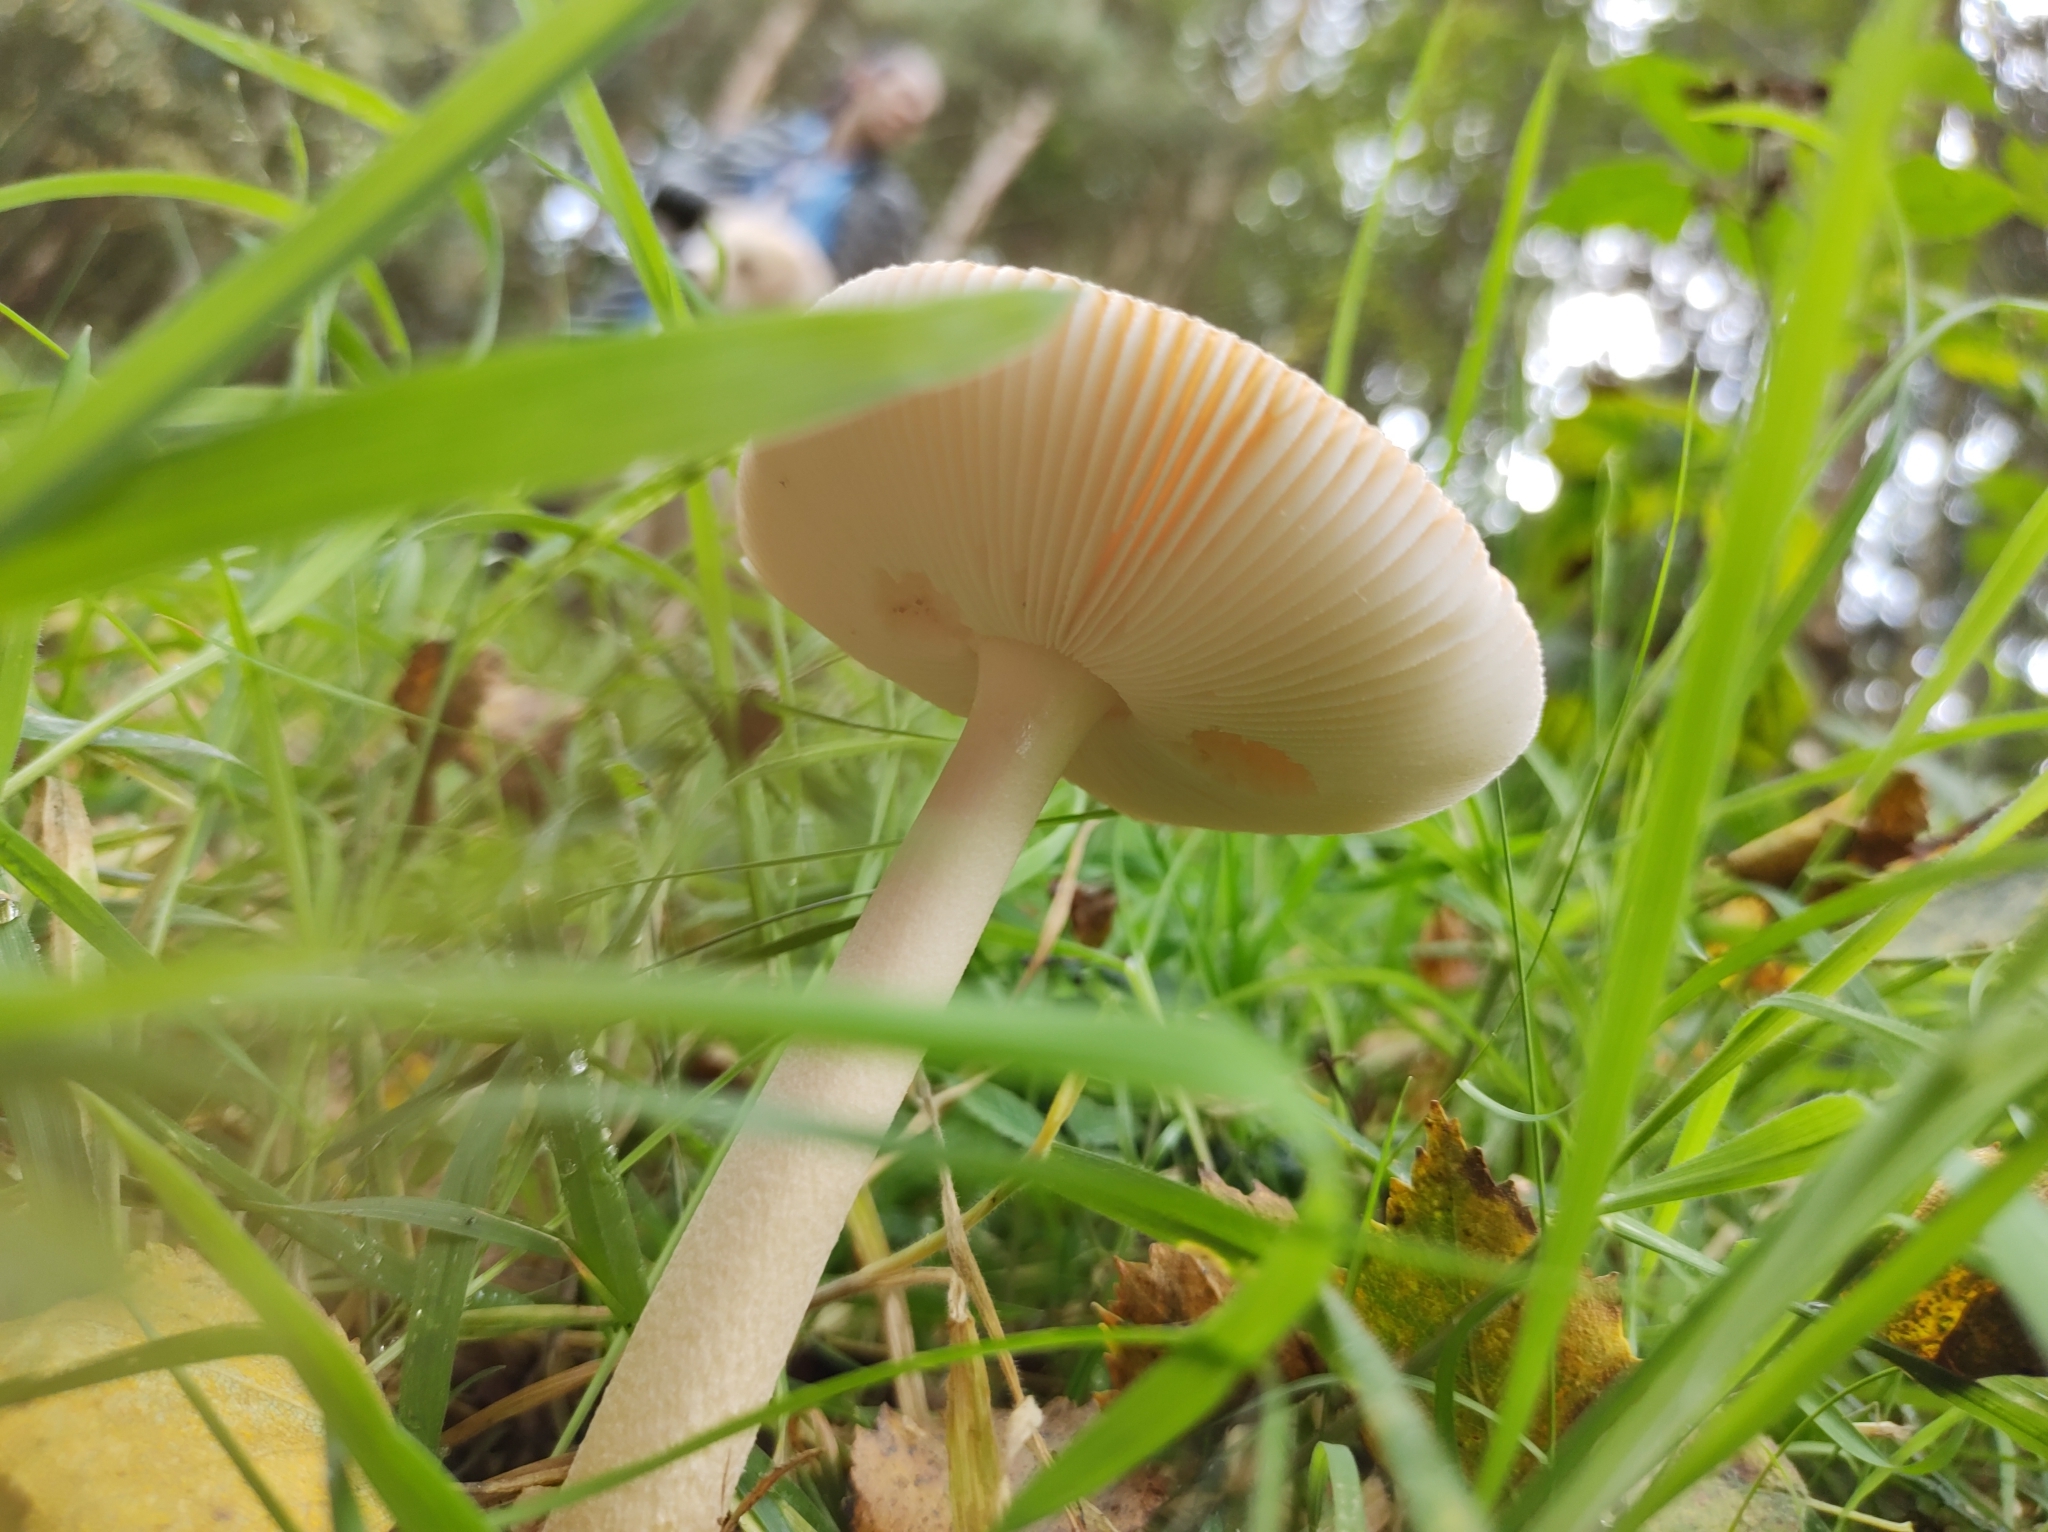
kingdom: Fungi
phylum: Basidiomycota
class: Agaricomycetes
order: Agaricales
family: Amanitaceae
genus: Amanita
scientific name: Amanita fulva
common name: Tawny grisette
